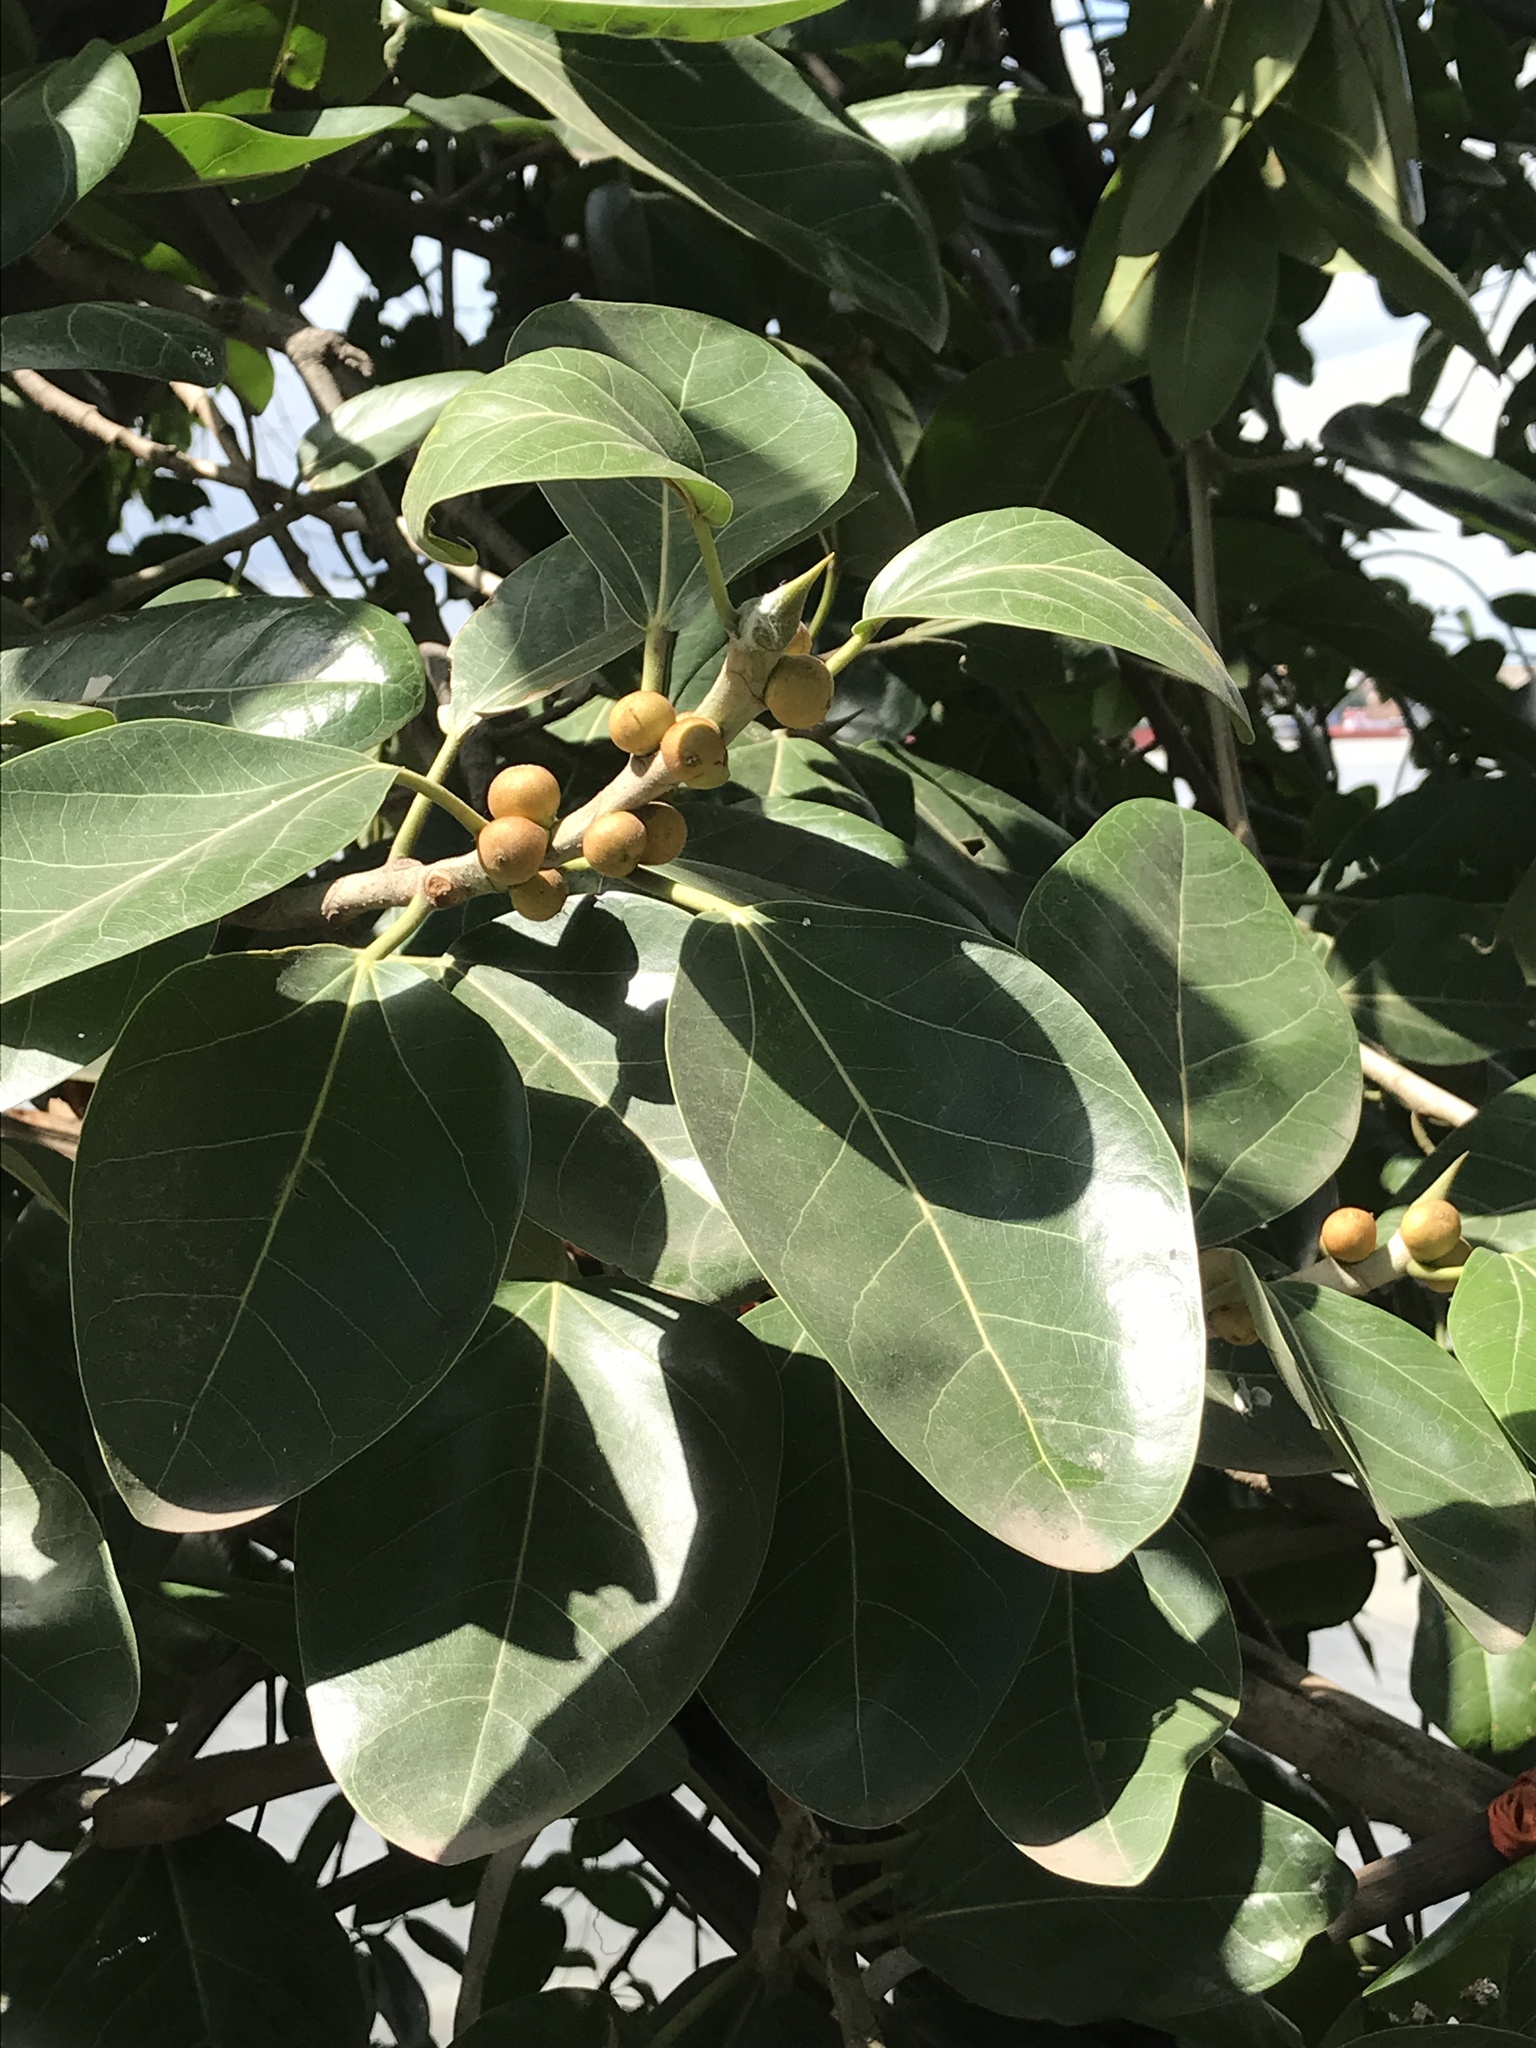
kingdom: Plantae
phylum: Tracheophyta
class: Magnoliopsida
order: Rosales
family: Moraceae
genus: Ficus
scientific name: Ficus benghalensis
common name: Indian banyan
